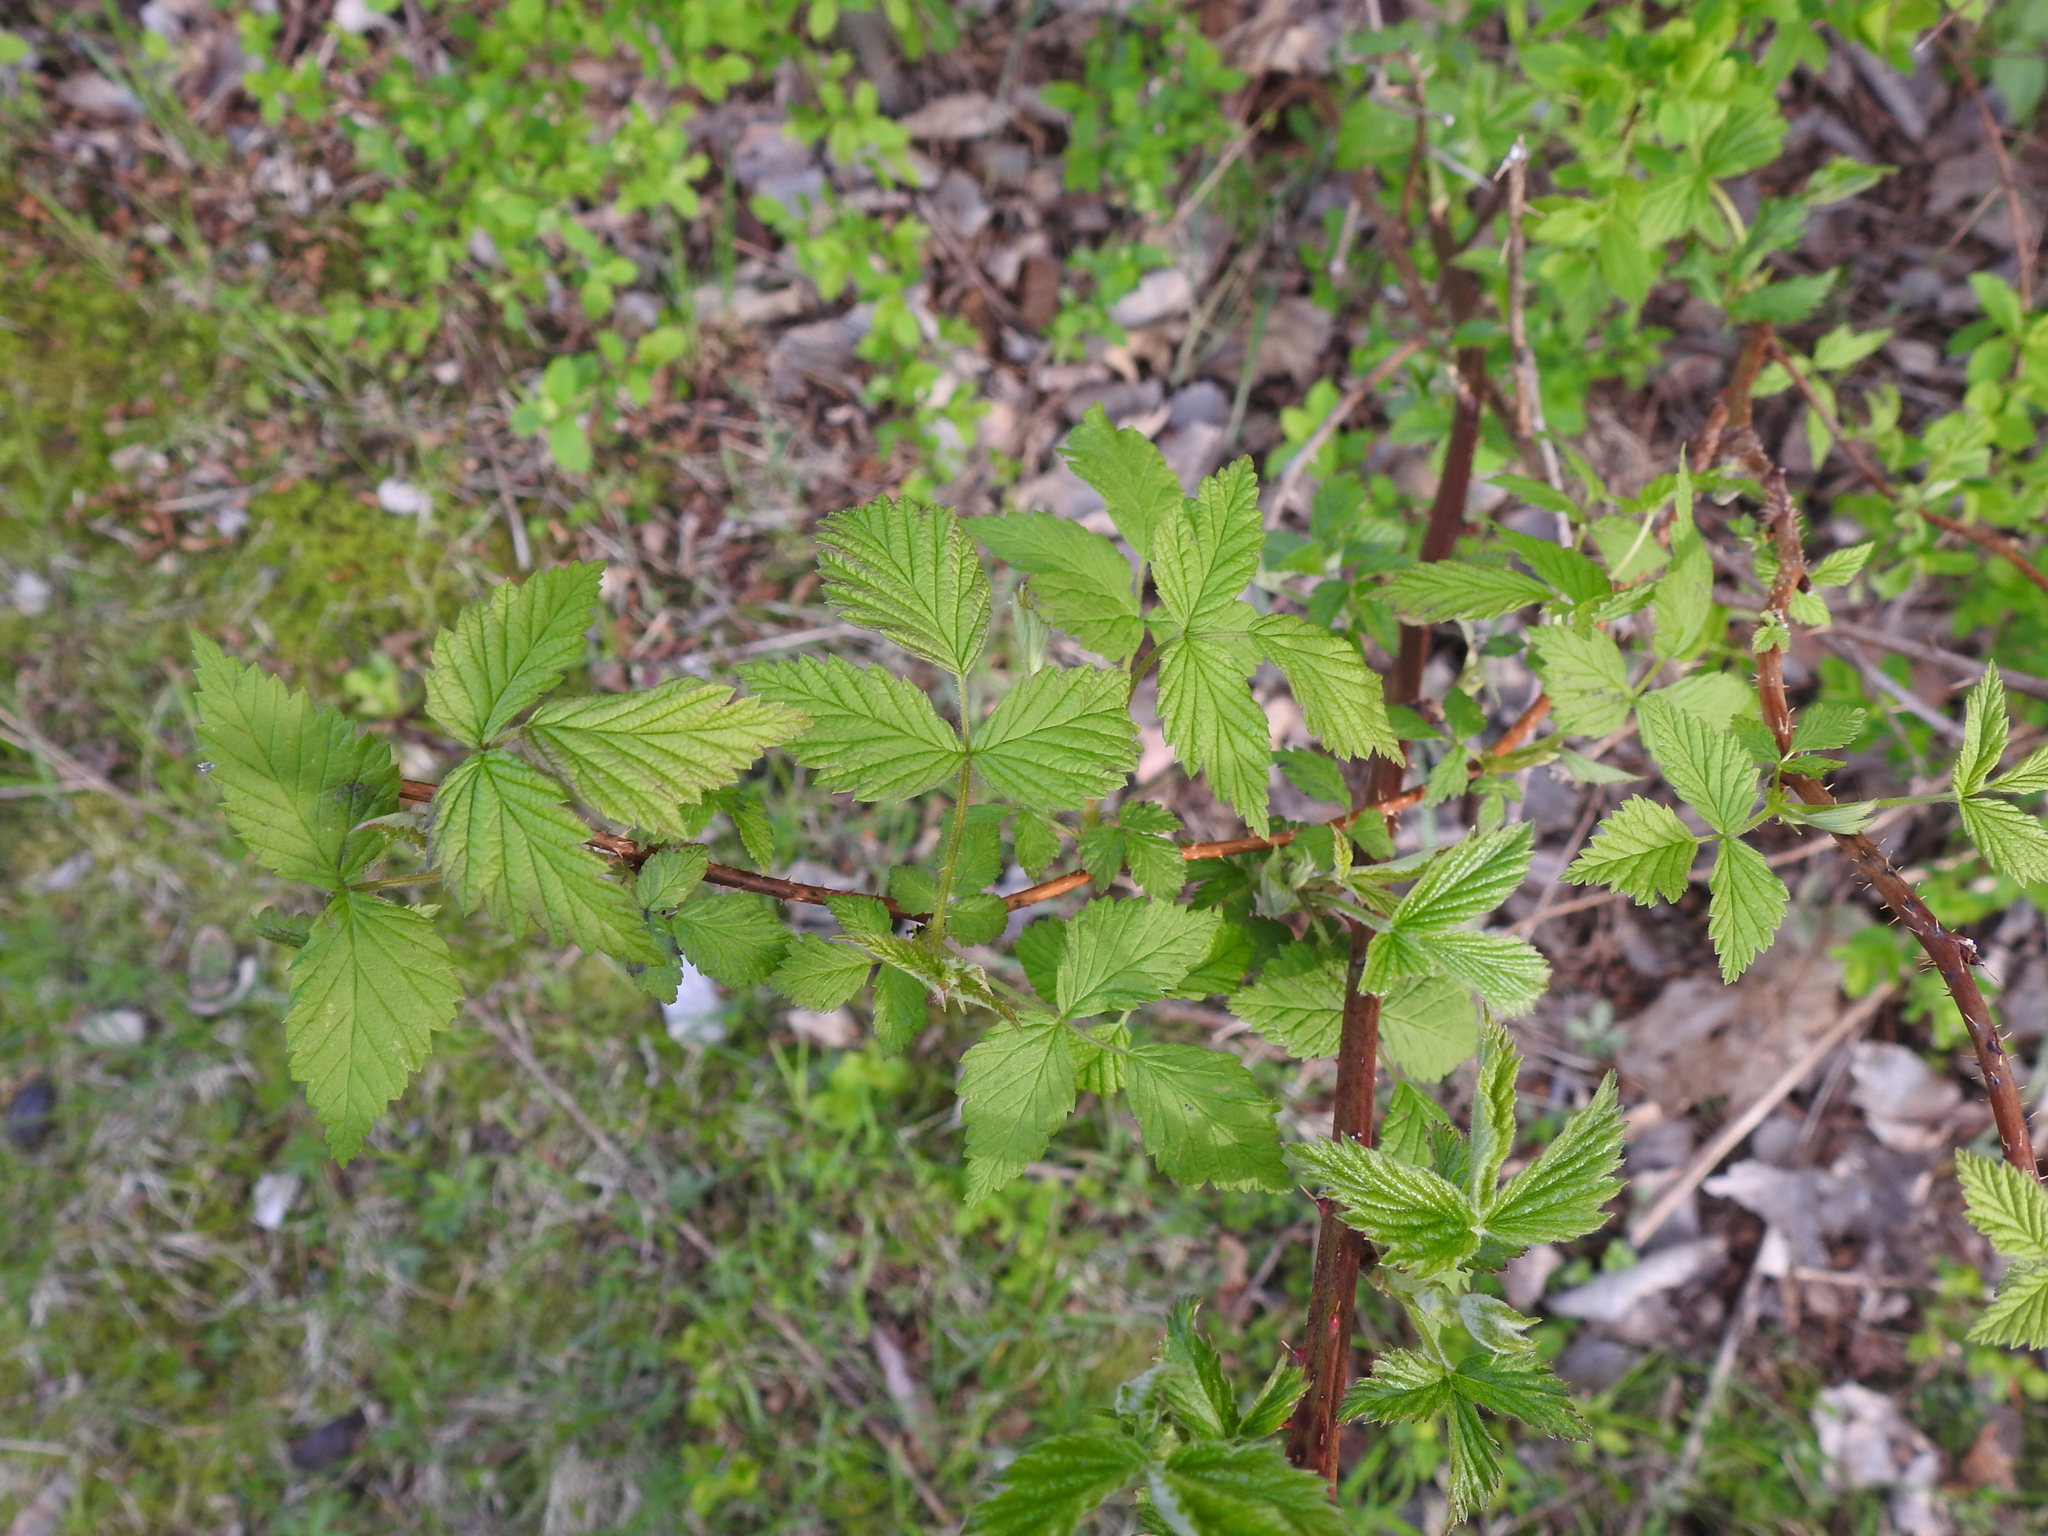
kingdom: Plantae
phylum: Tracheophyta
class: Magnoliopsida
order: Rosales
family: Rosaceae
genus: Rubus
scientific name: Rubus idaeus
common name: Raspberry
